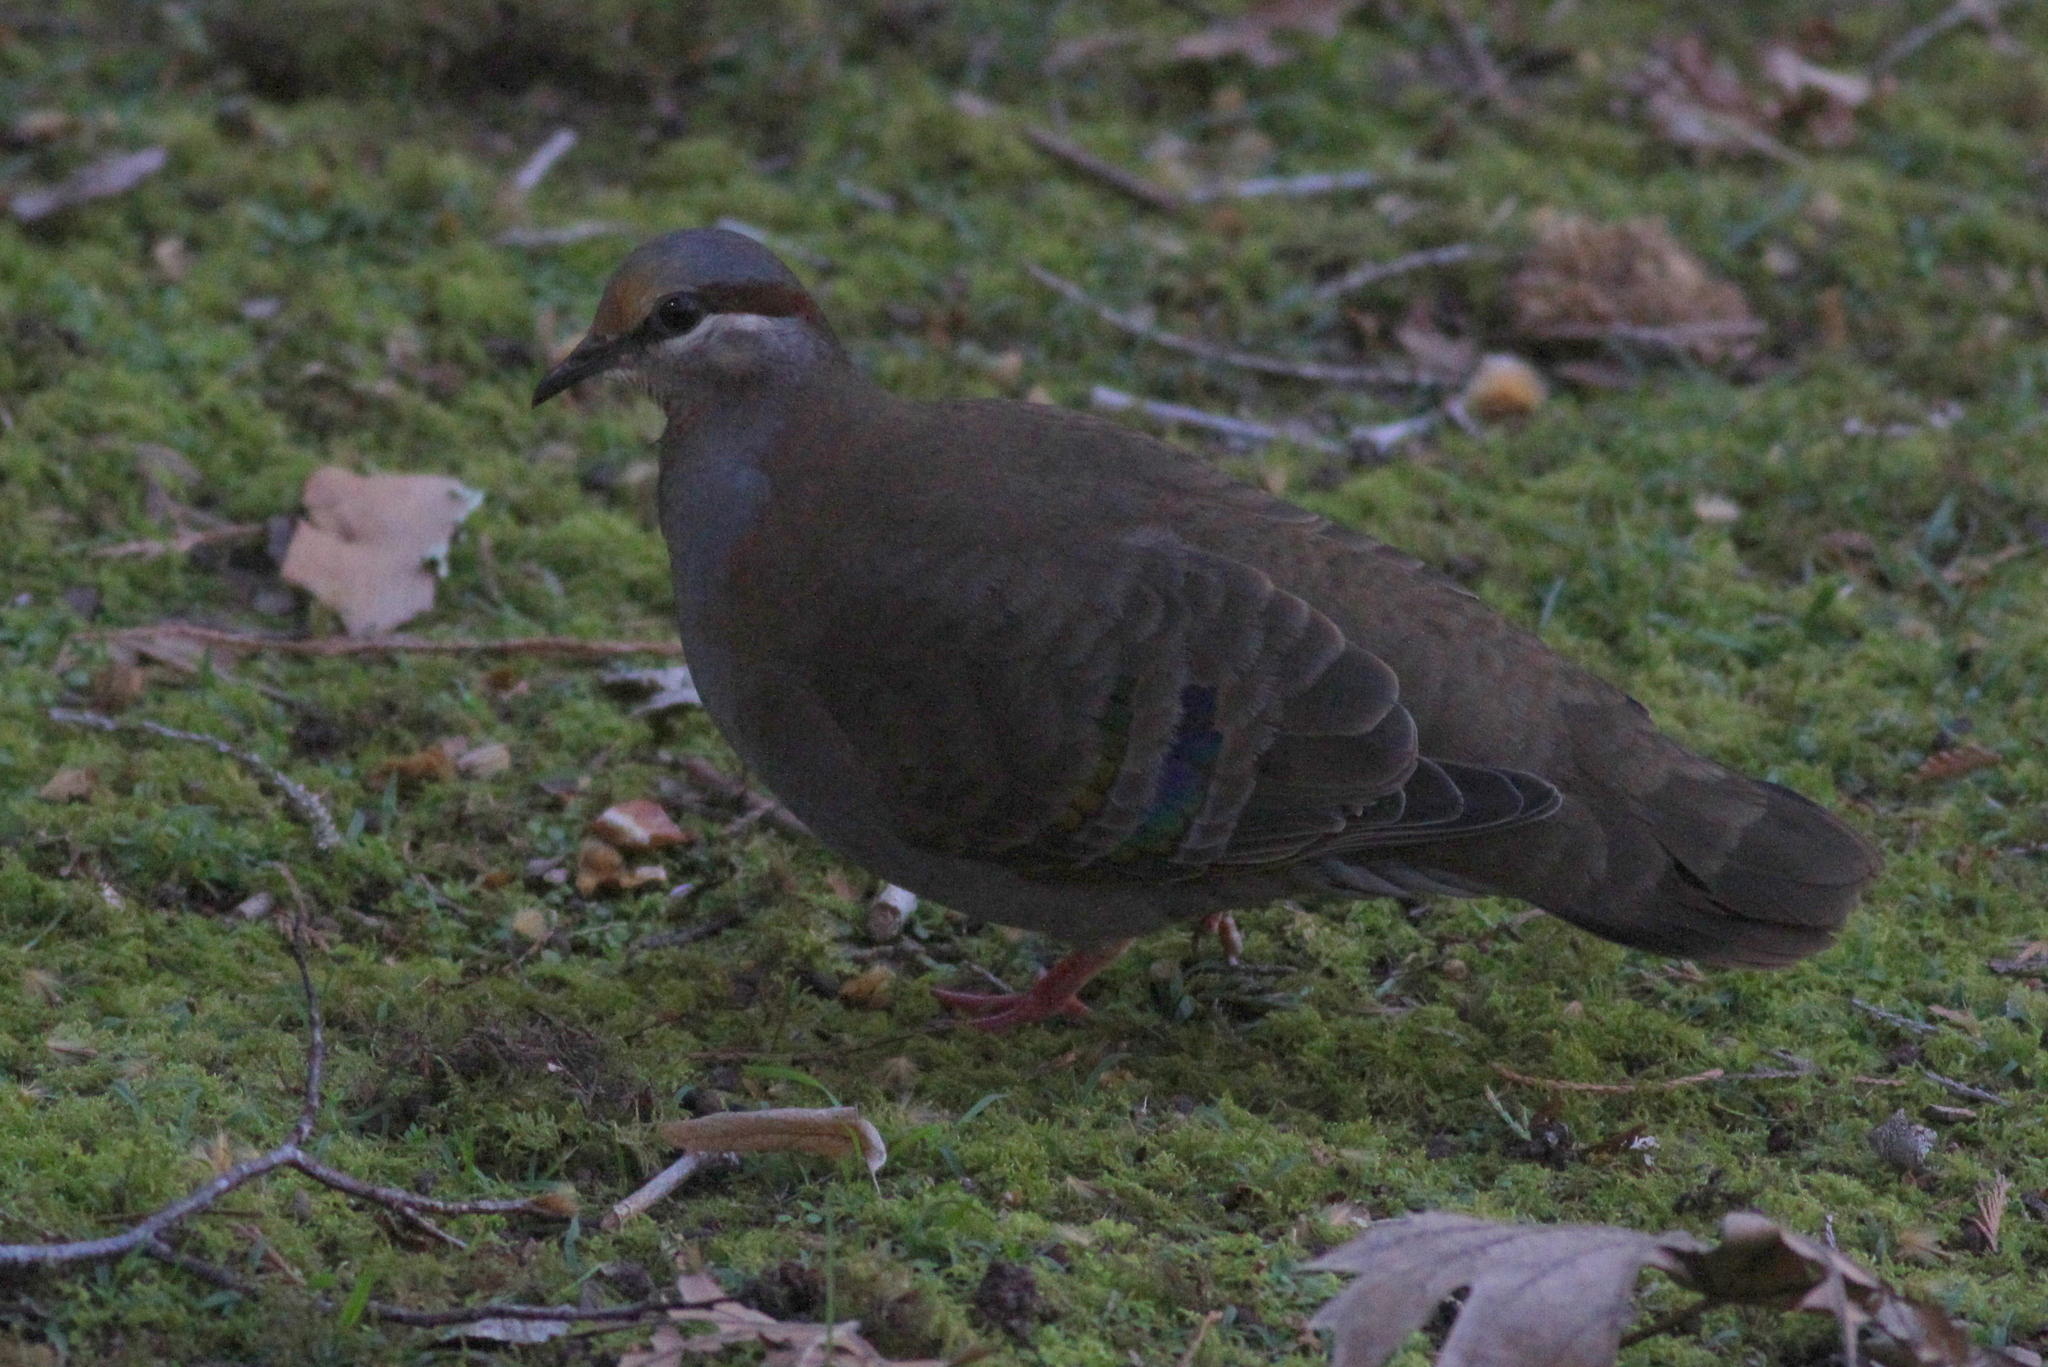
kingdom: Animalia
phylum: Chordata
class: Aves
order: Columbiformes
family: Columbidae
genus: Phaps
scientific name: Phaps elegans
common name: Brush bronzewing
